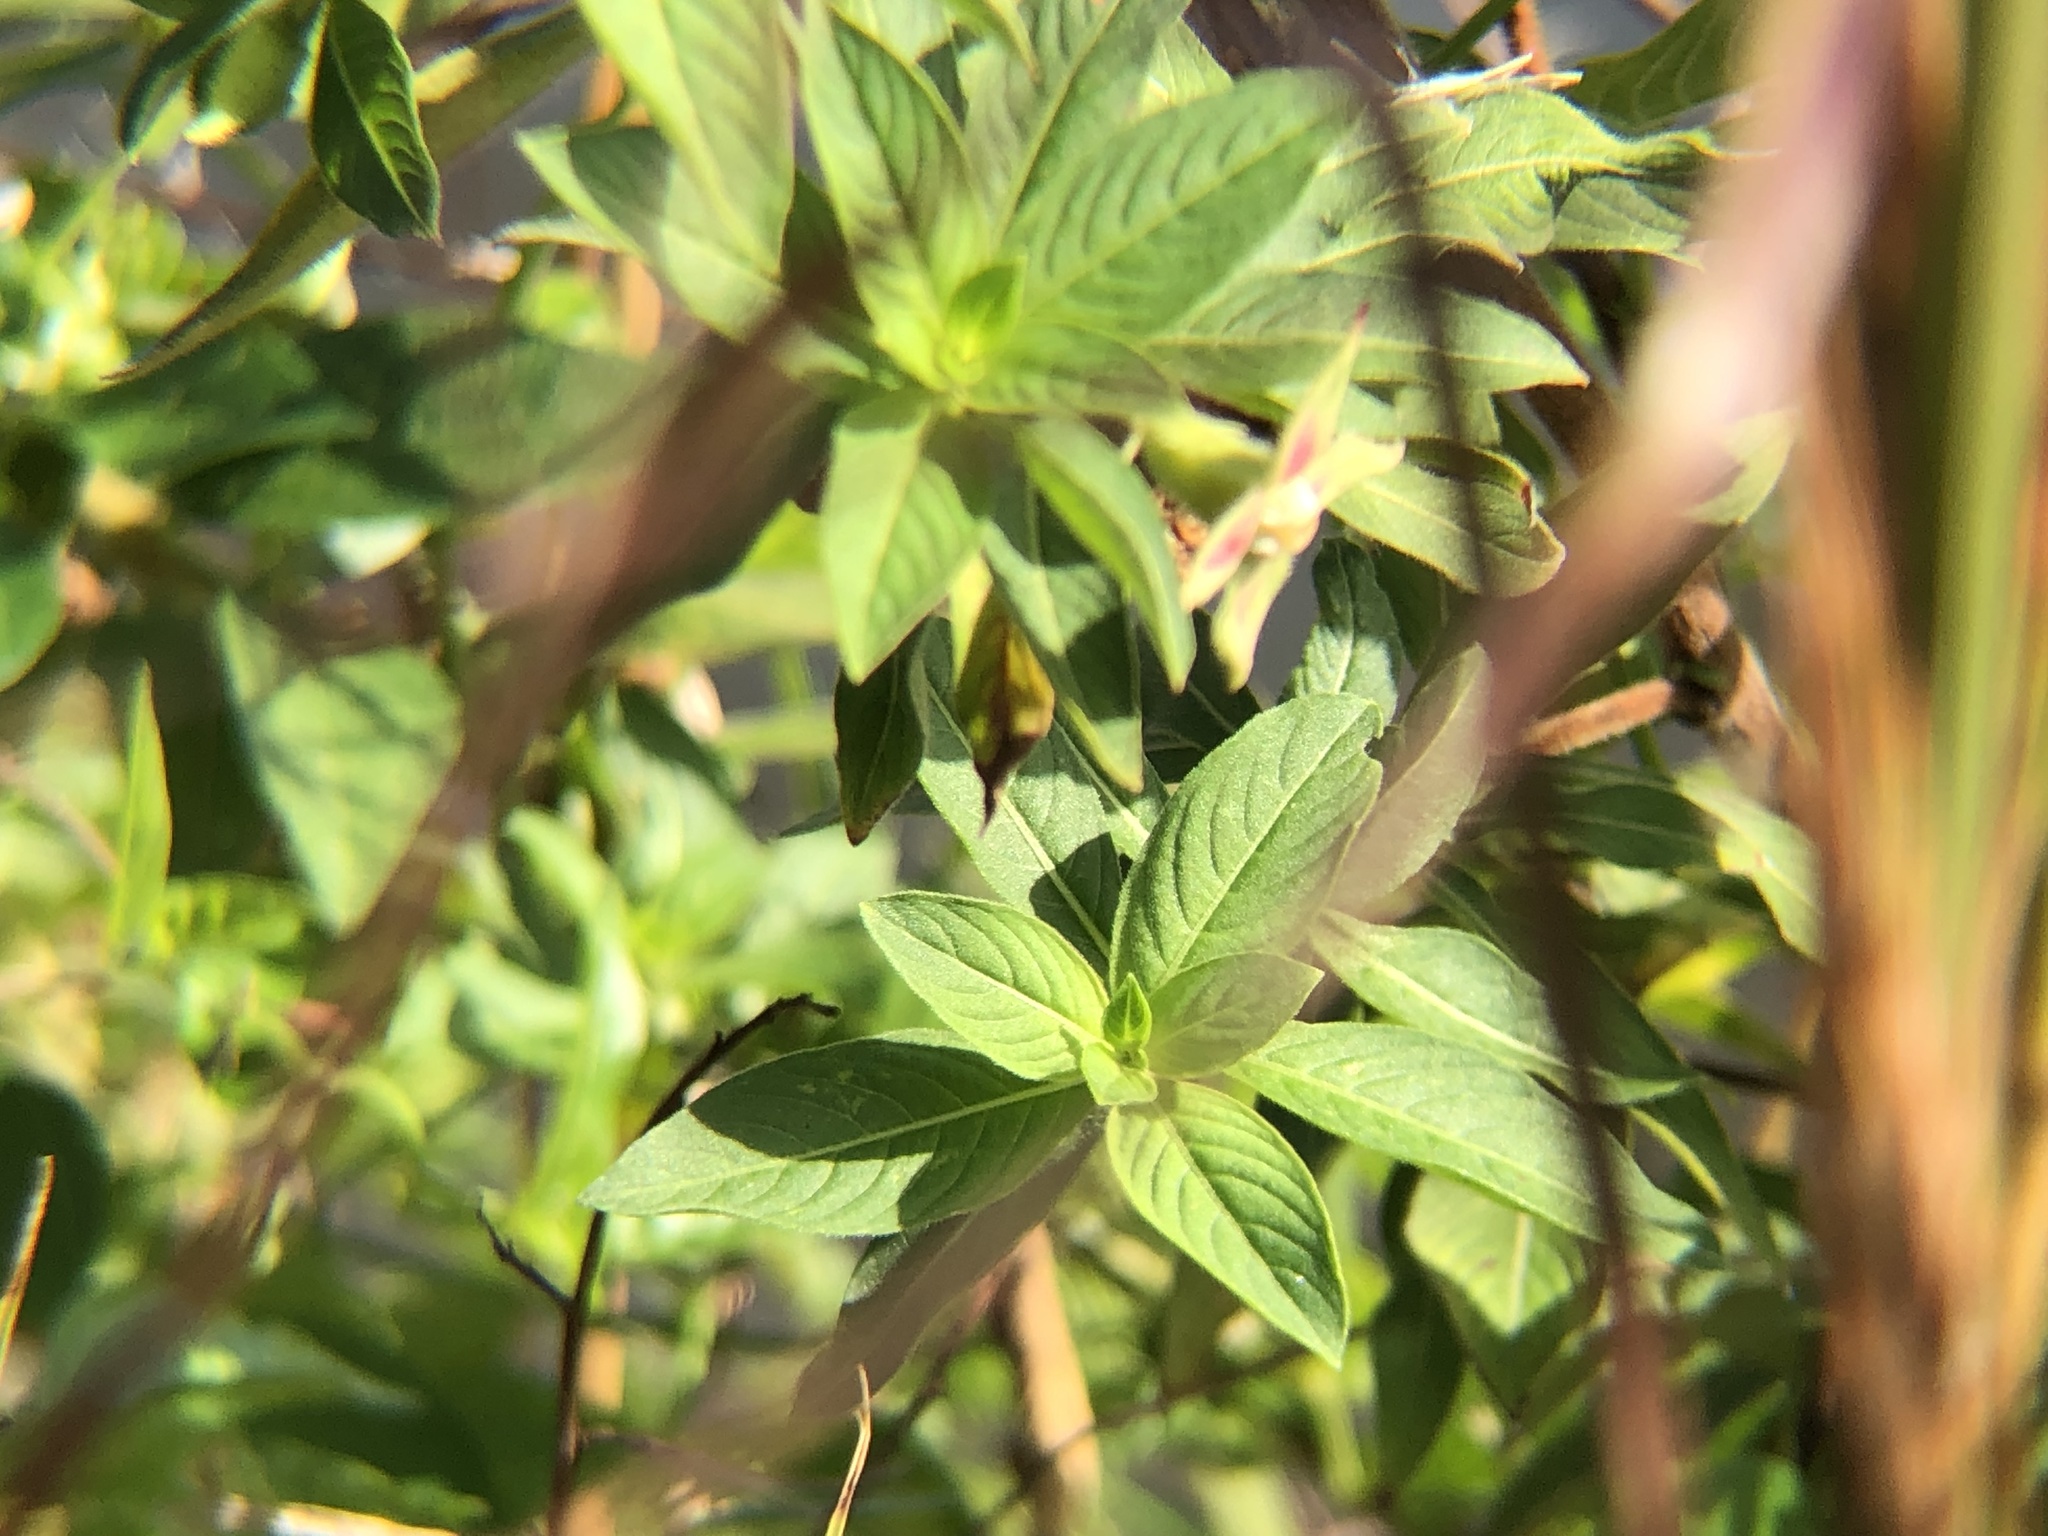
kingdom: Plantae
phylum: Tracheophyta
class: Magnoliopsida
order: Myrtales
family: Onagraceae
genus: Ludwigia
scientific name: Ludwigia peruviana
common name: Peruvian primrose-willow
